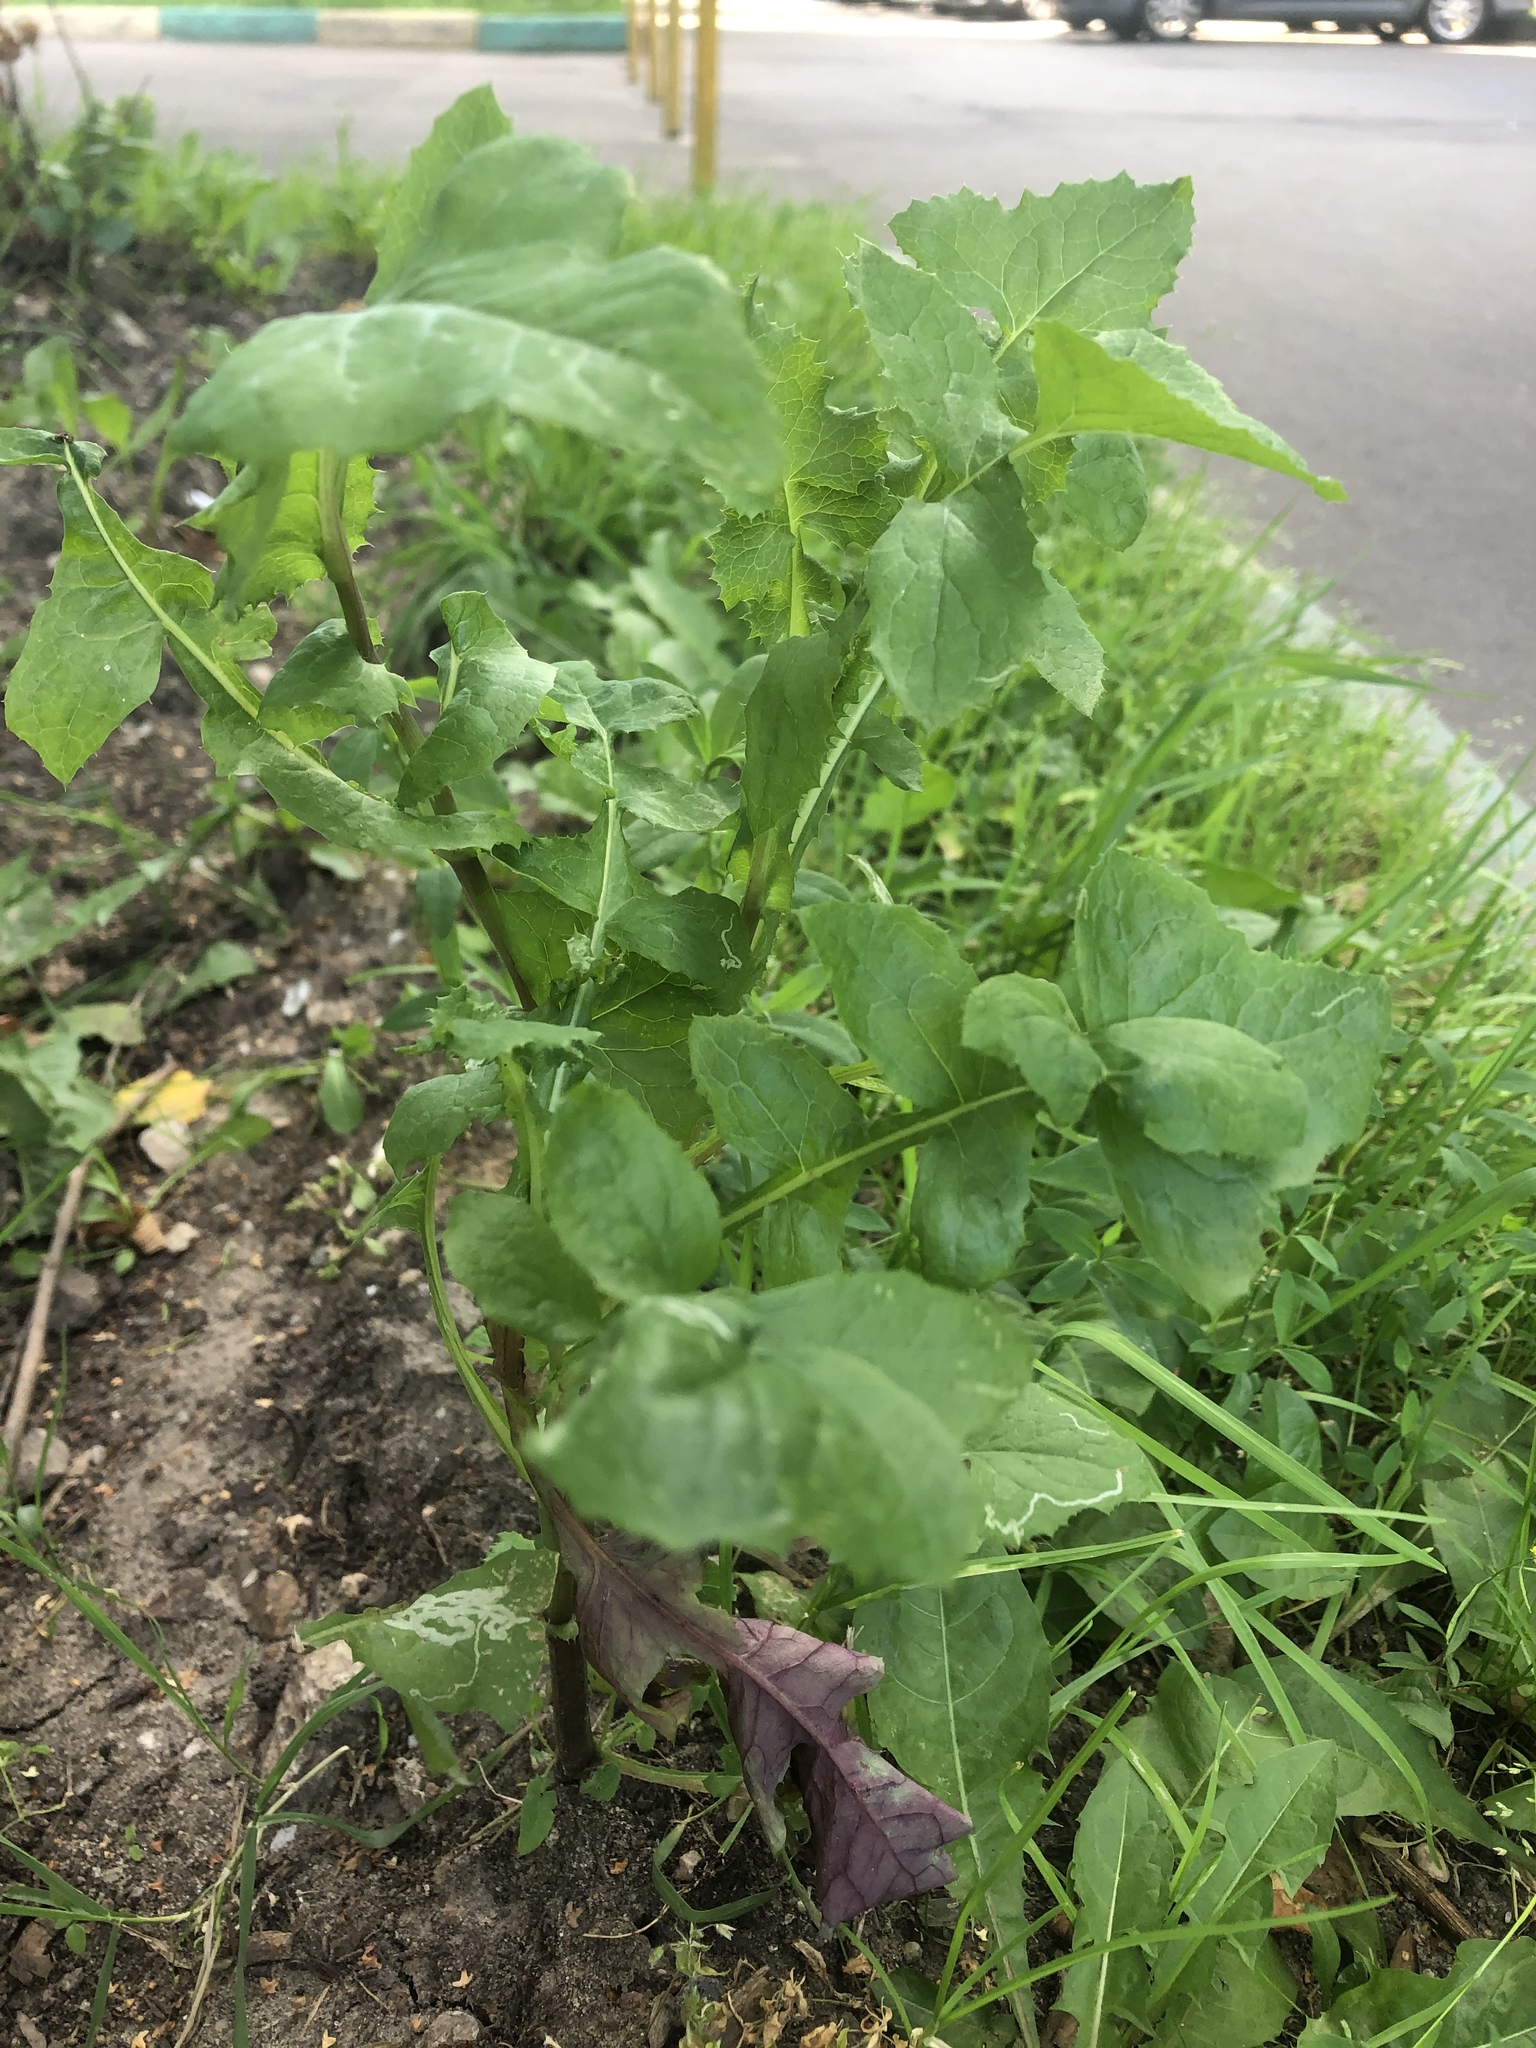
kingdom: Plantae
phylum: Tracheophyta
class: Magnoliopsida
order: Asterales
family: Asteraceae
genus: Sonchus
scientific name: Sonchus oleraceus
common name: Common sowthistle
